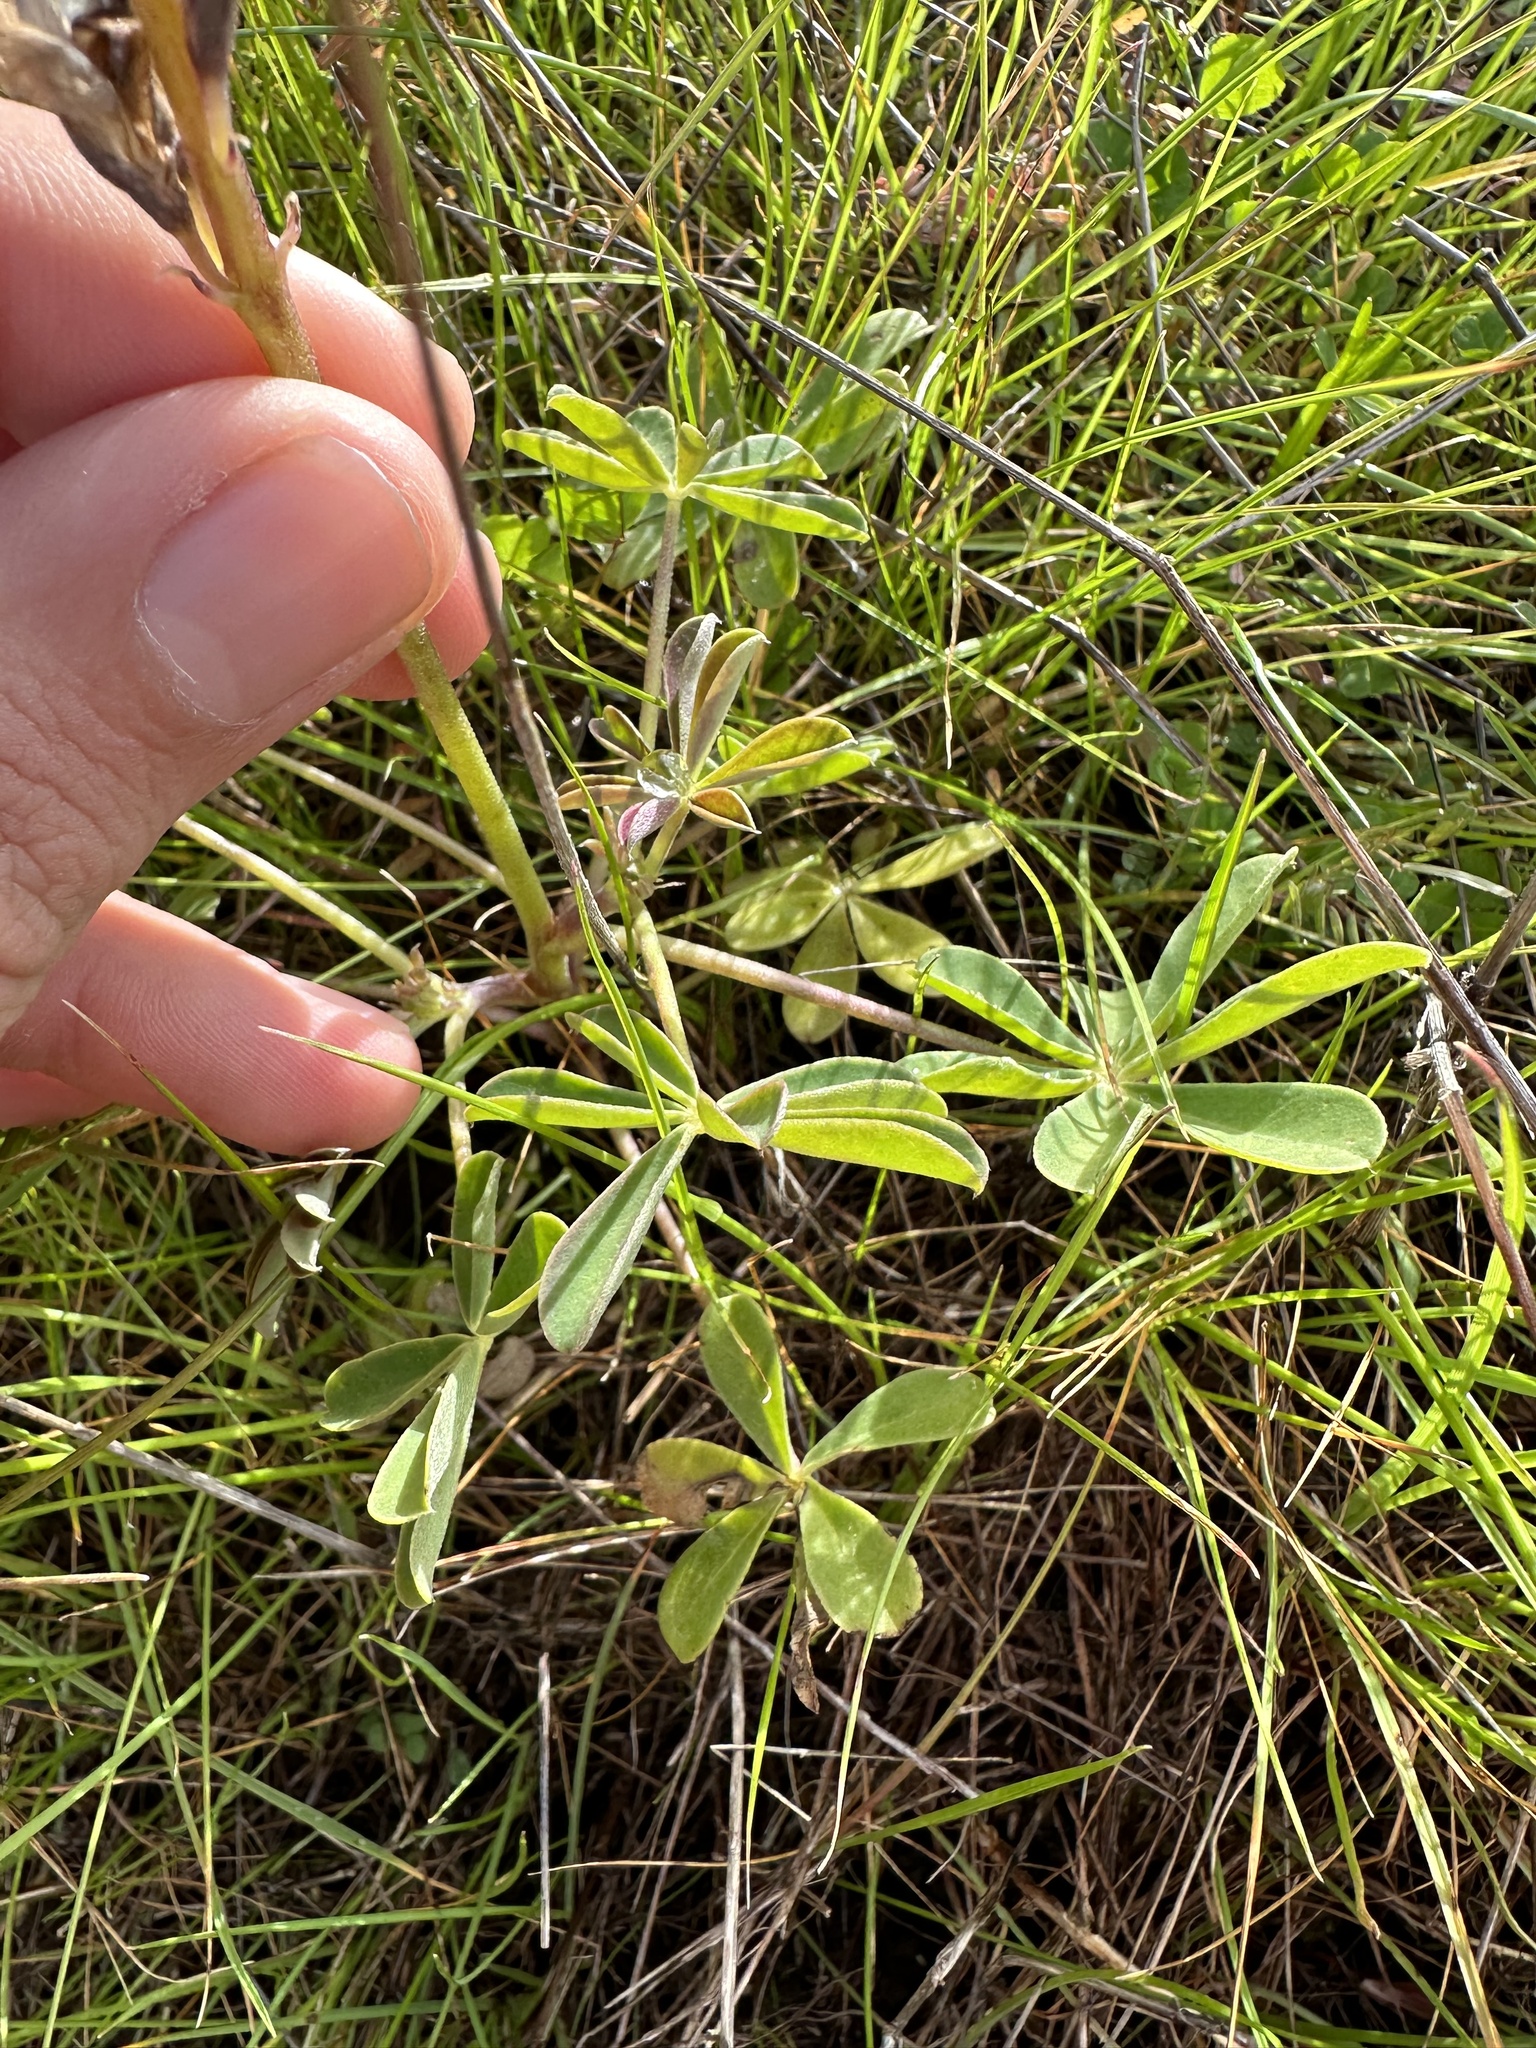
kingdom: Plantae
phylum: Tracheophyta
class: Magnoliopsida
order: Fabales
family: Fabaceae
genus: Lupinus
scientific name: Lupinus succulentus
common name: Arroyo lupine
